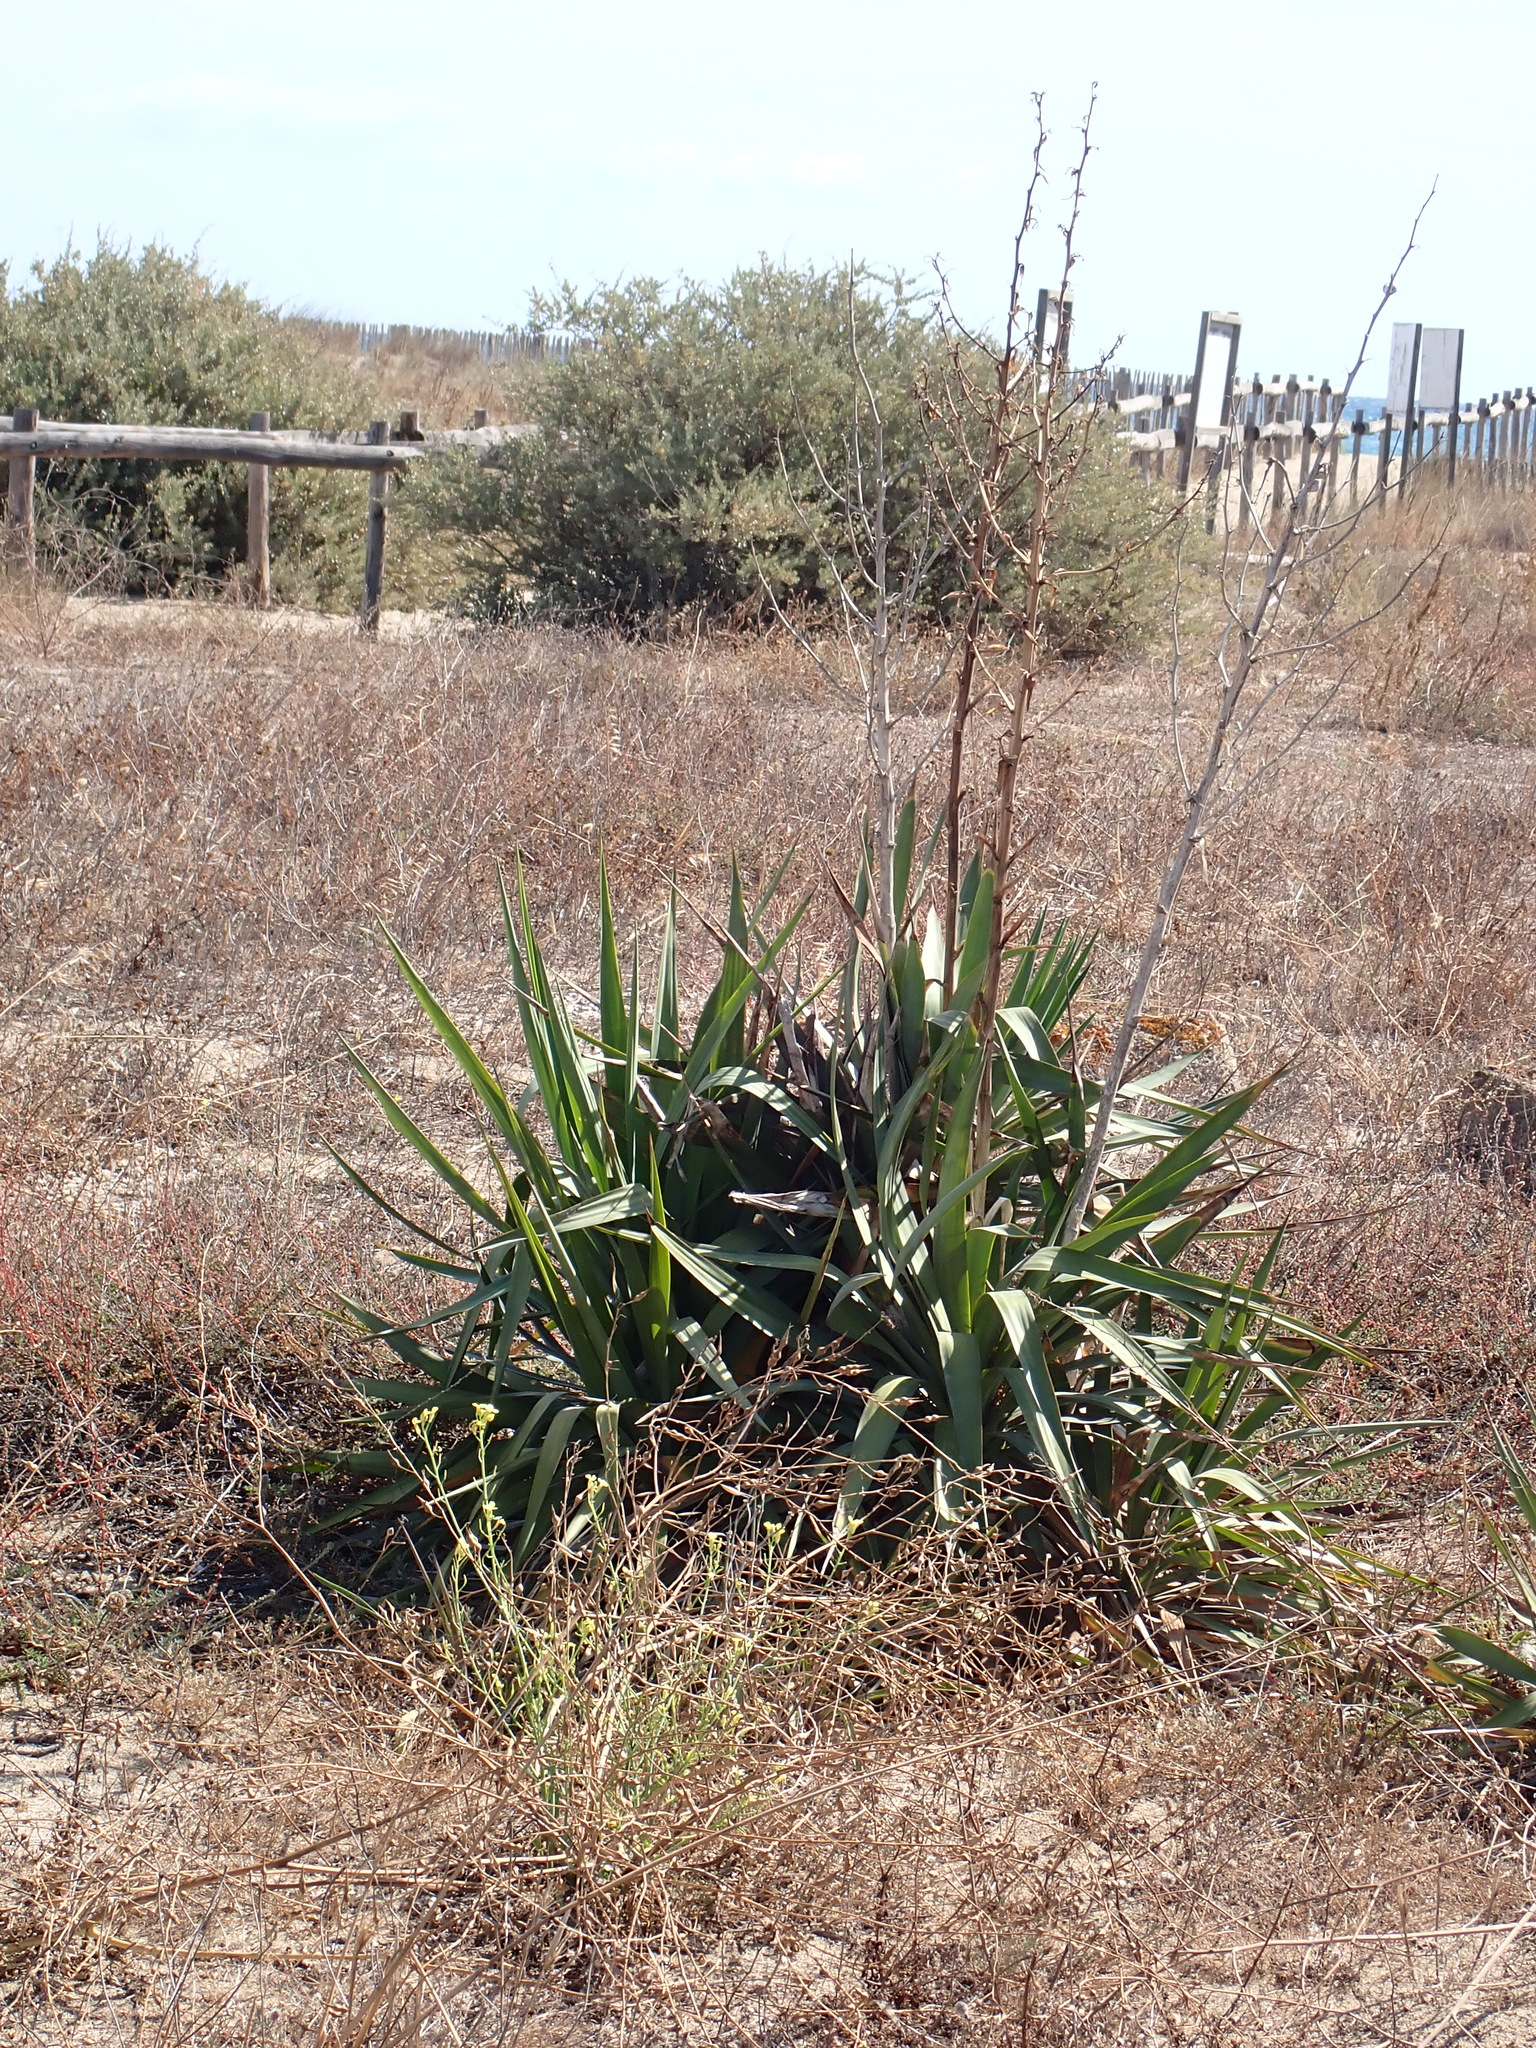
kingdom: Plantae
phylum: Tracheophyta
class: Liliopsida
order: Asparagales
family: Asparagaceae
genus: Yucca
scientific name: Yucca gloriosa
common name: Spanish-dagger
